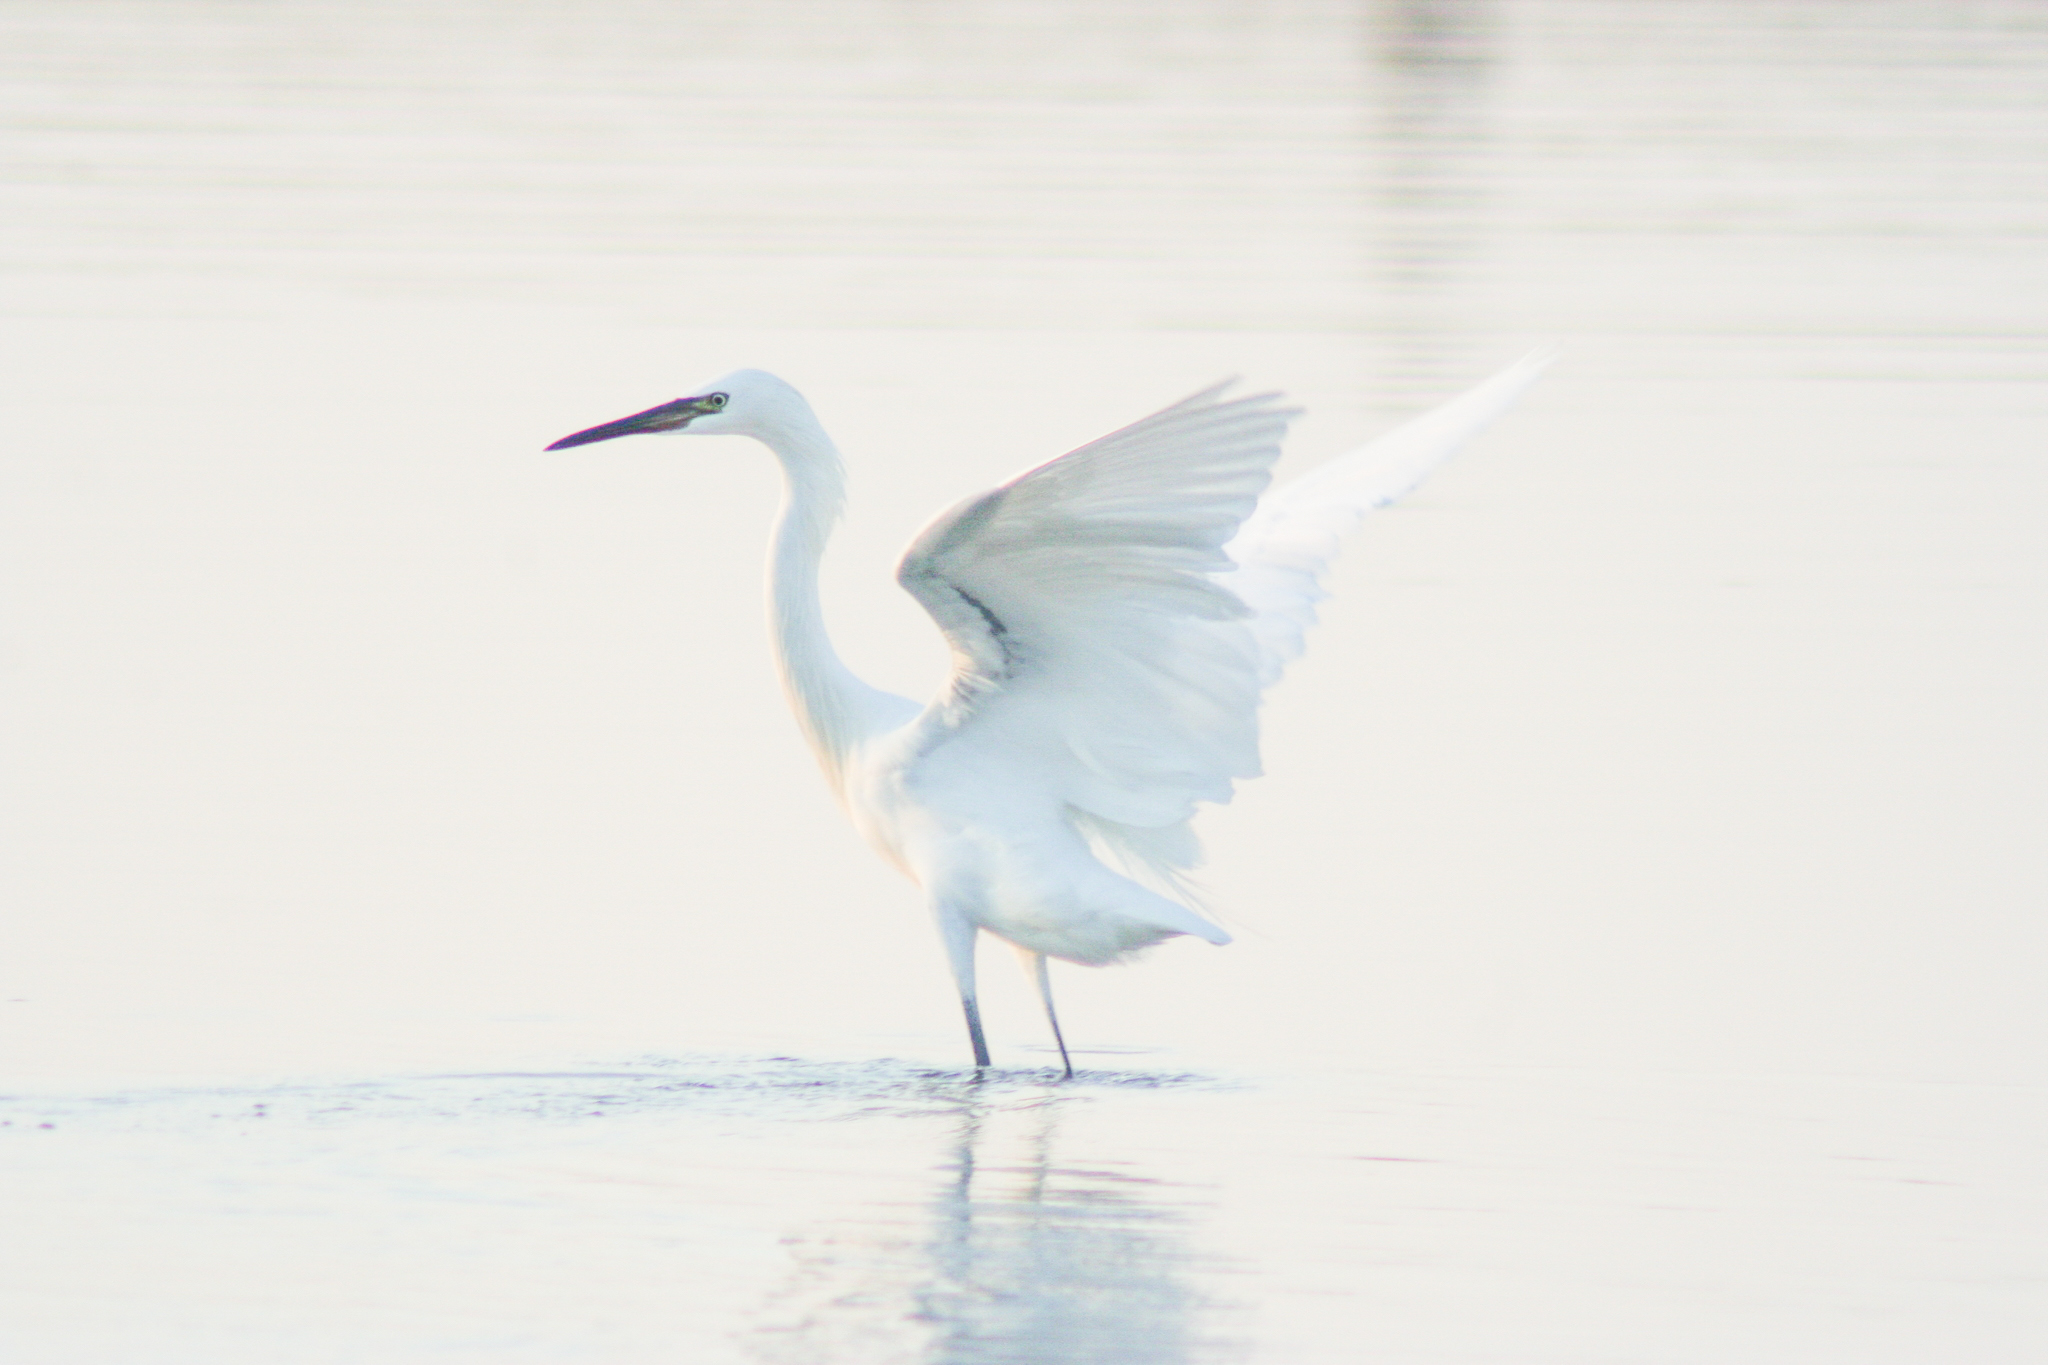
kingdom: Animalia
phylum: Chordata
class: Aves
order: Pelecaniformes
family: Ardeidae
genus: Egretta
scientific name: Egretta rufescens
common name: Reddish egret
